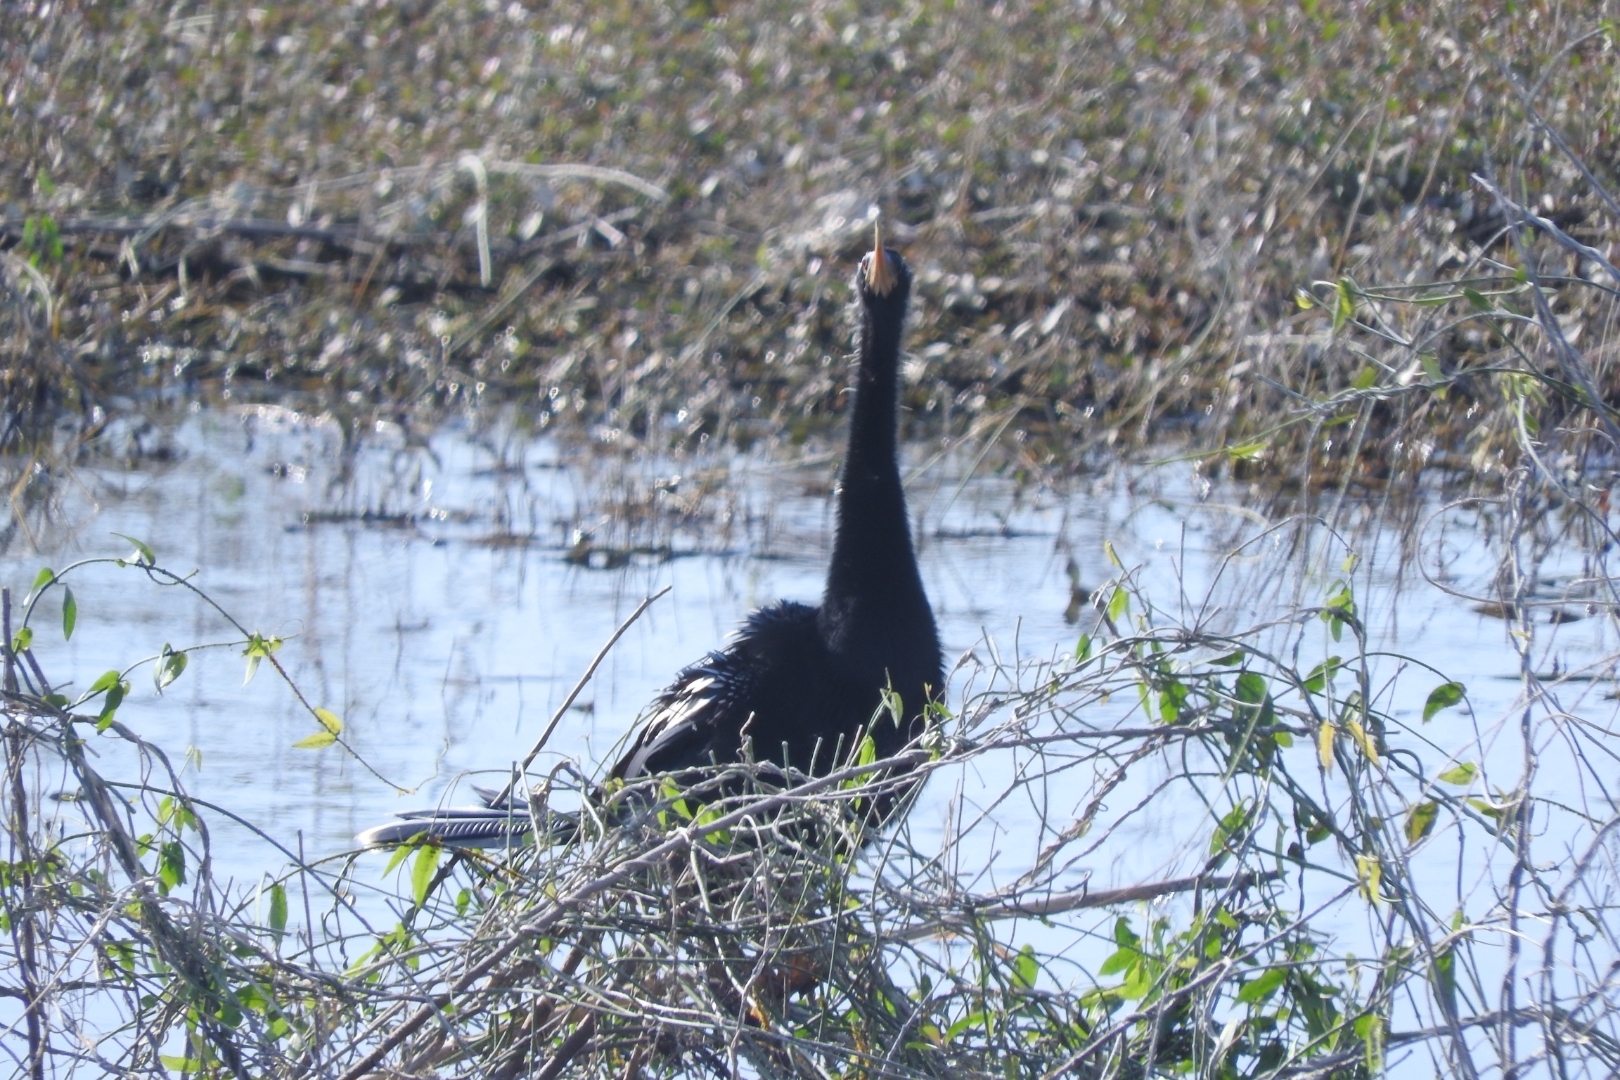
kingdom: Animalia
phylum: Chordata
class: Aves
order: Suliformes
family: Anhingidae
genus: Anhinga
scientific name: Anhinga anhinga
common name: Anhinga
